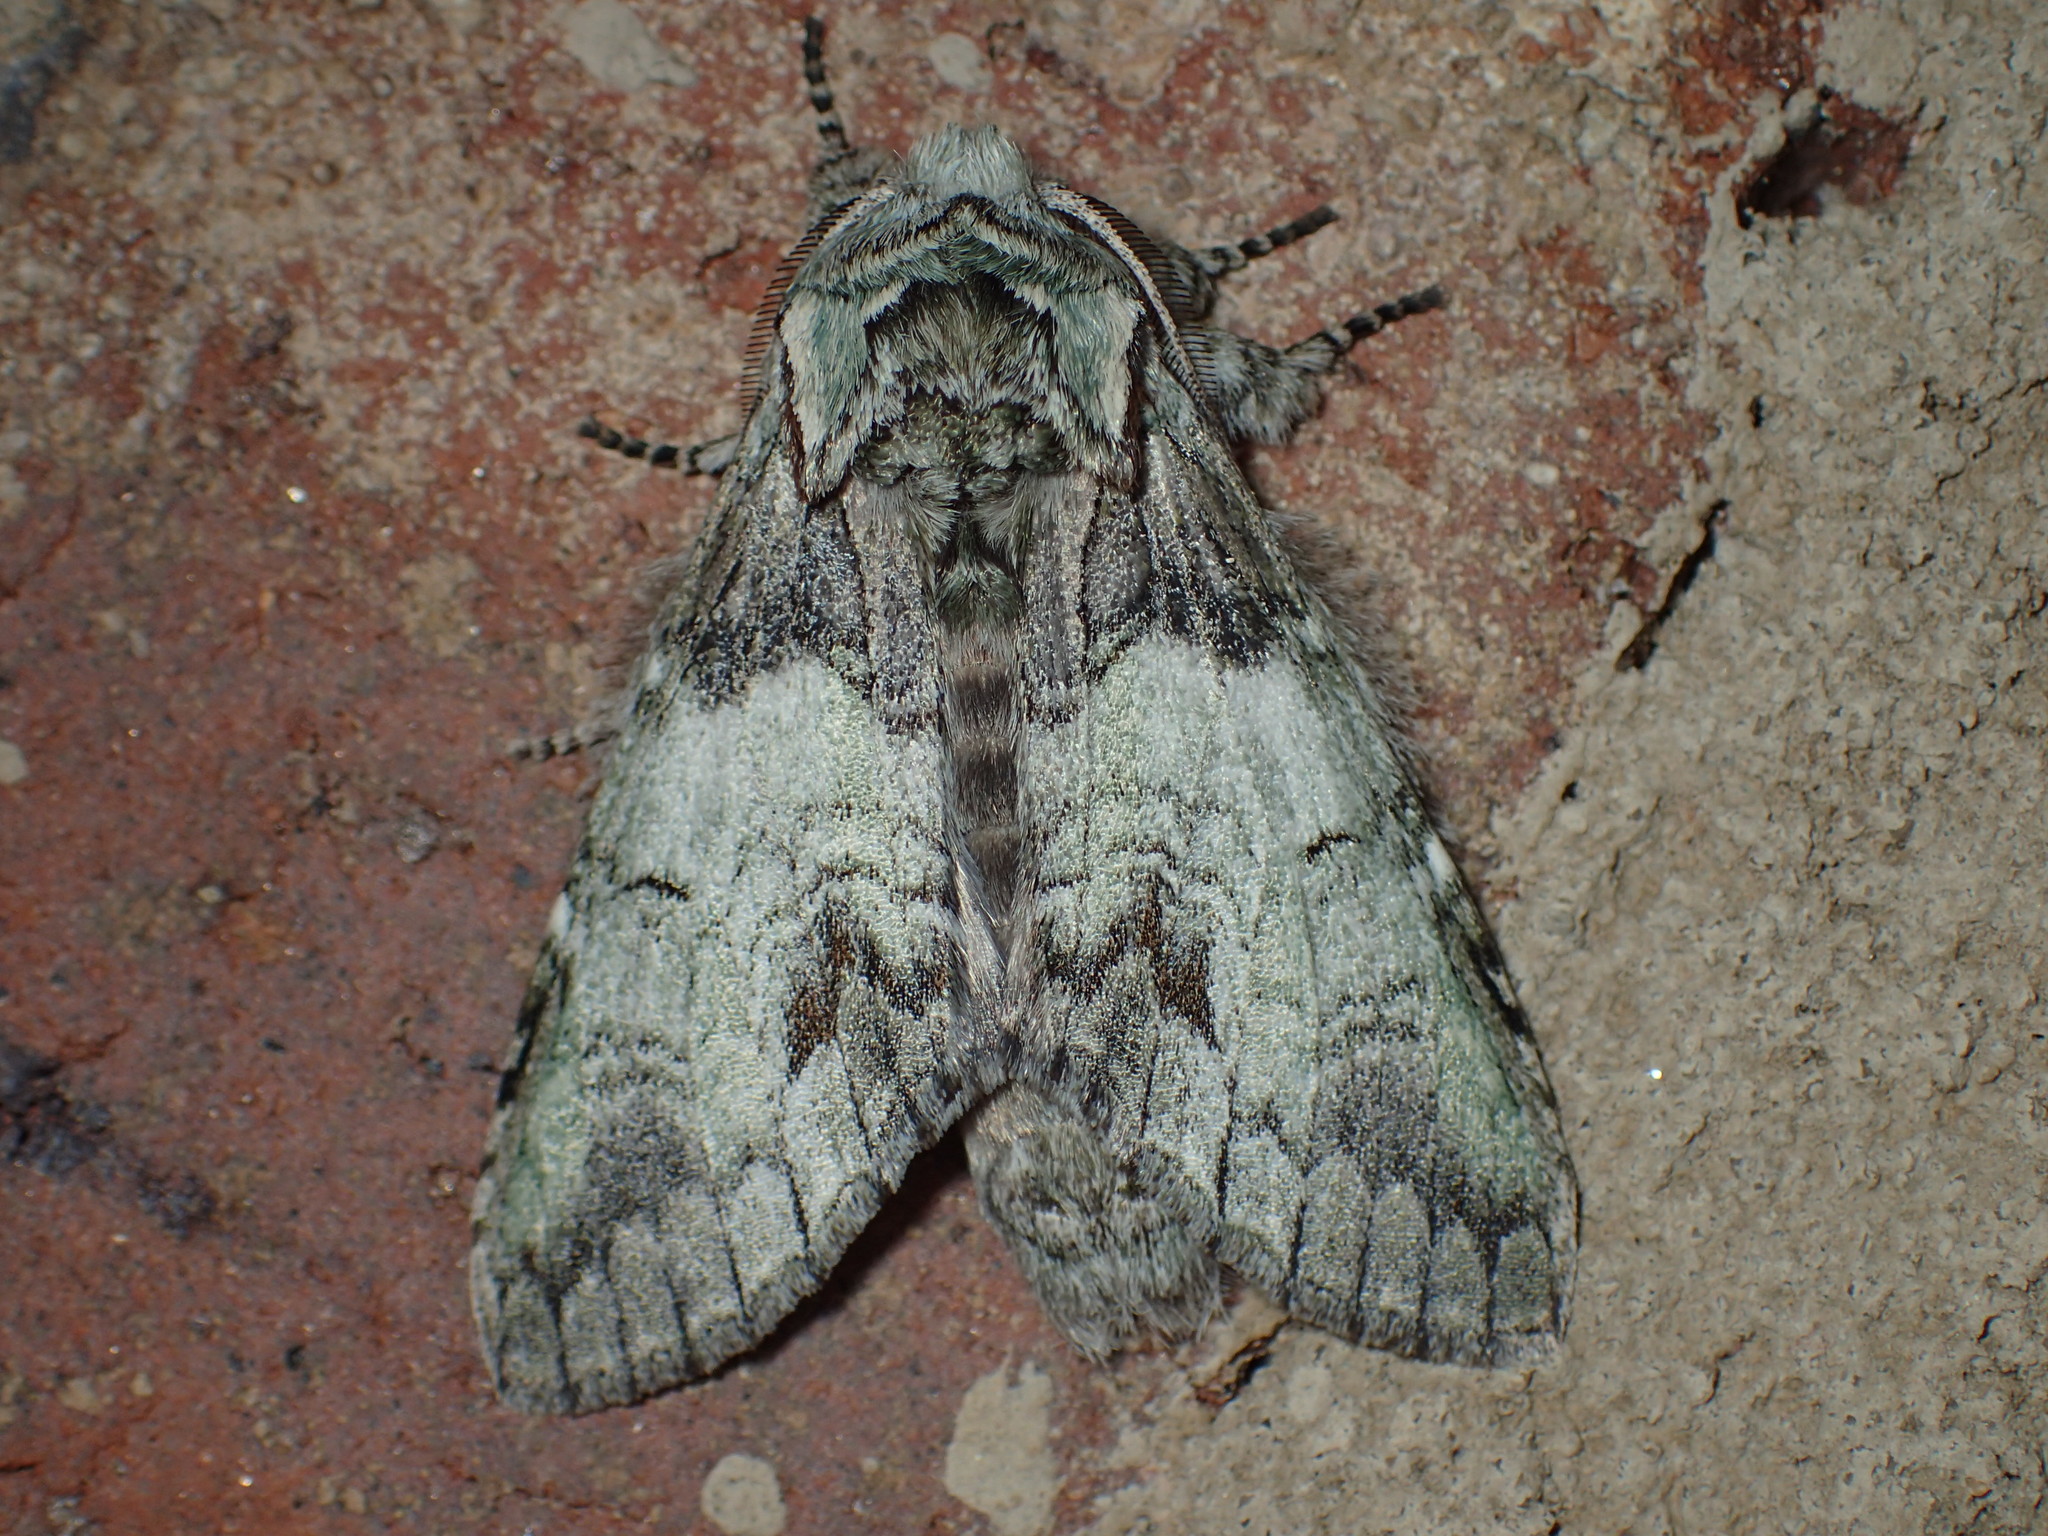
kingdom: Animalia
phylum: Arthropoda
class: Insecta
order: Lepidoptera
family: Notodontidae
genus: Macrurocampa
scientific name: Macrurocampa marthesia
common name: Mottled prominent
